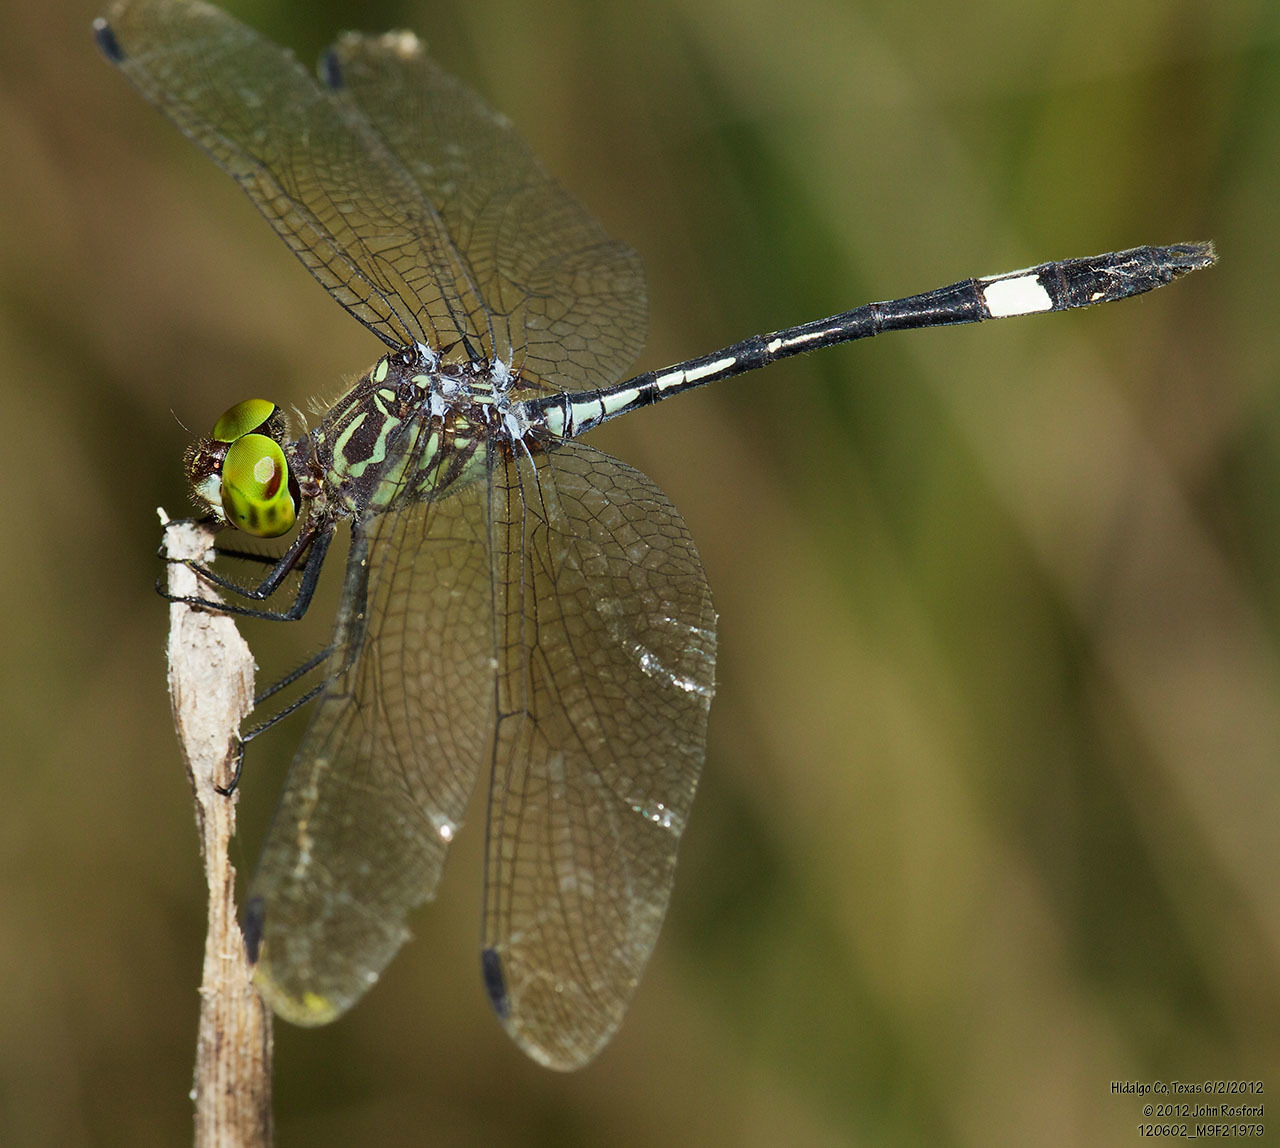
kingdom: Animalia
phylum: Arthropoda
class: Insecta
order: Odonata
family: Libellulidae
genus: Micrathyria
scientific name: Micrathyria dissocians
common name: Caribbean dasher
